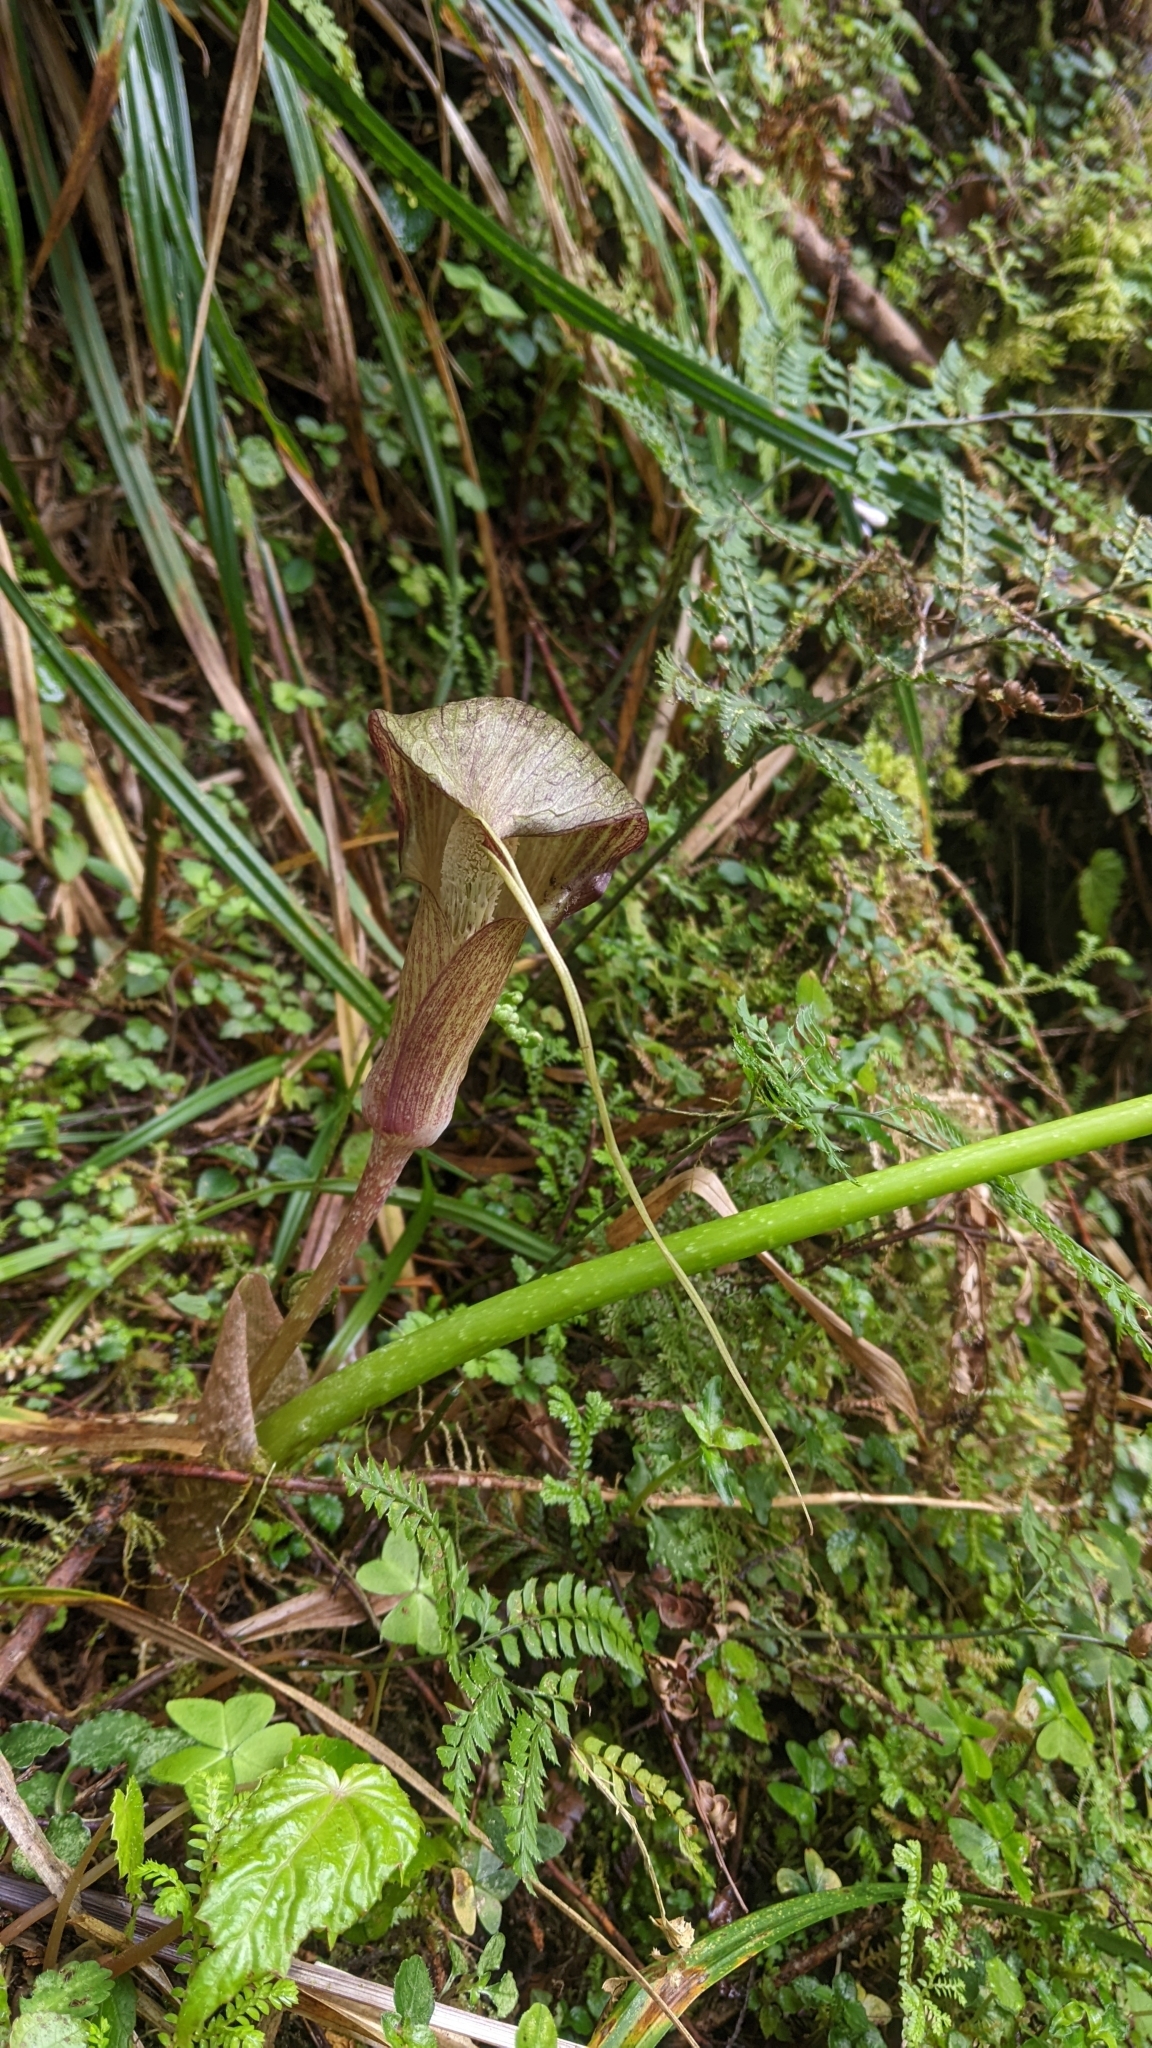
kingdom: Plantae
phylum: Tracheophyta
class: Liliopsida
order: Alismatales
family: Araceae
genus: Arisaema
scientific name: Arisaema taiwanense
